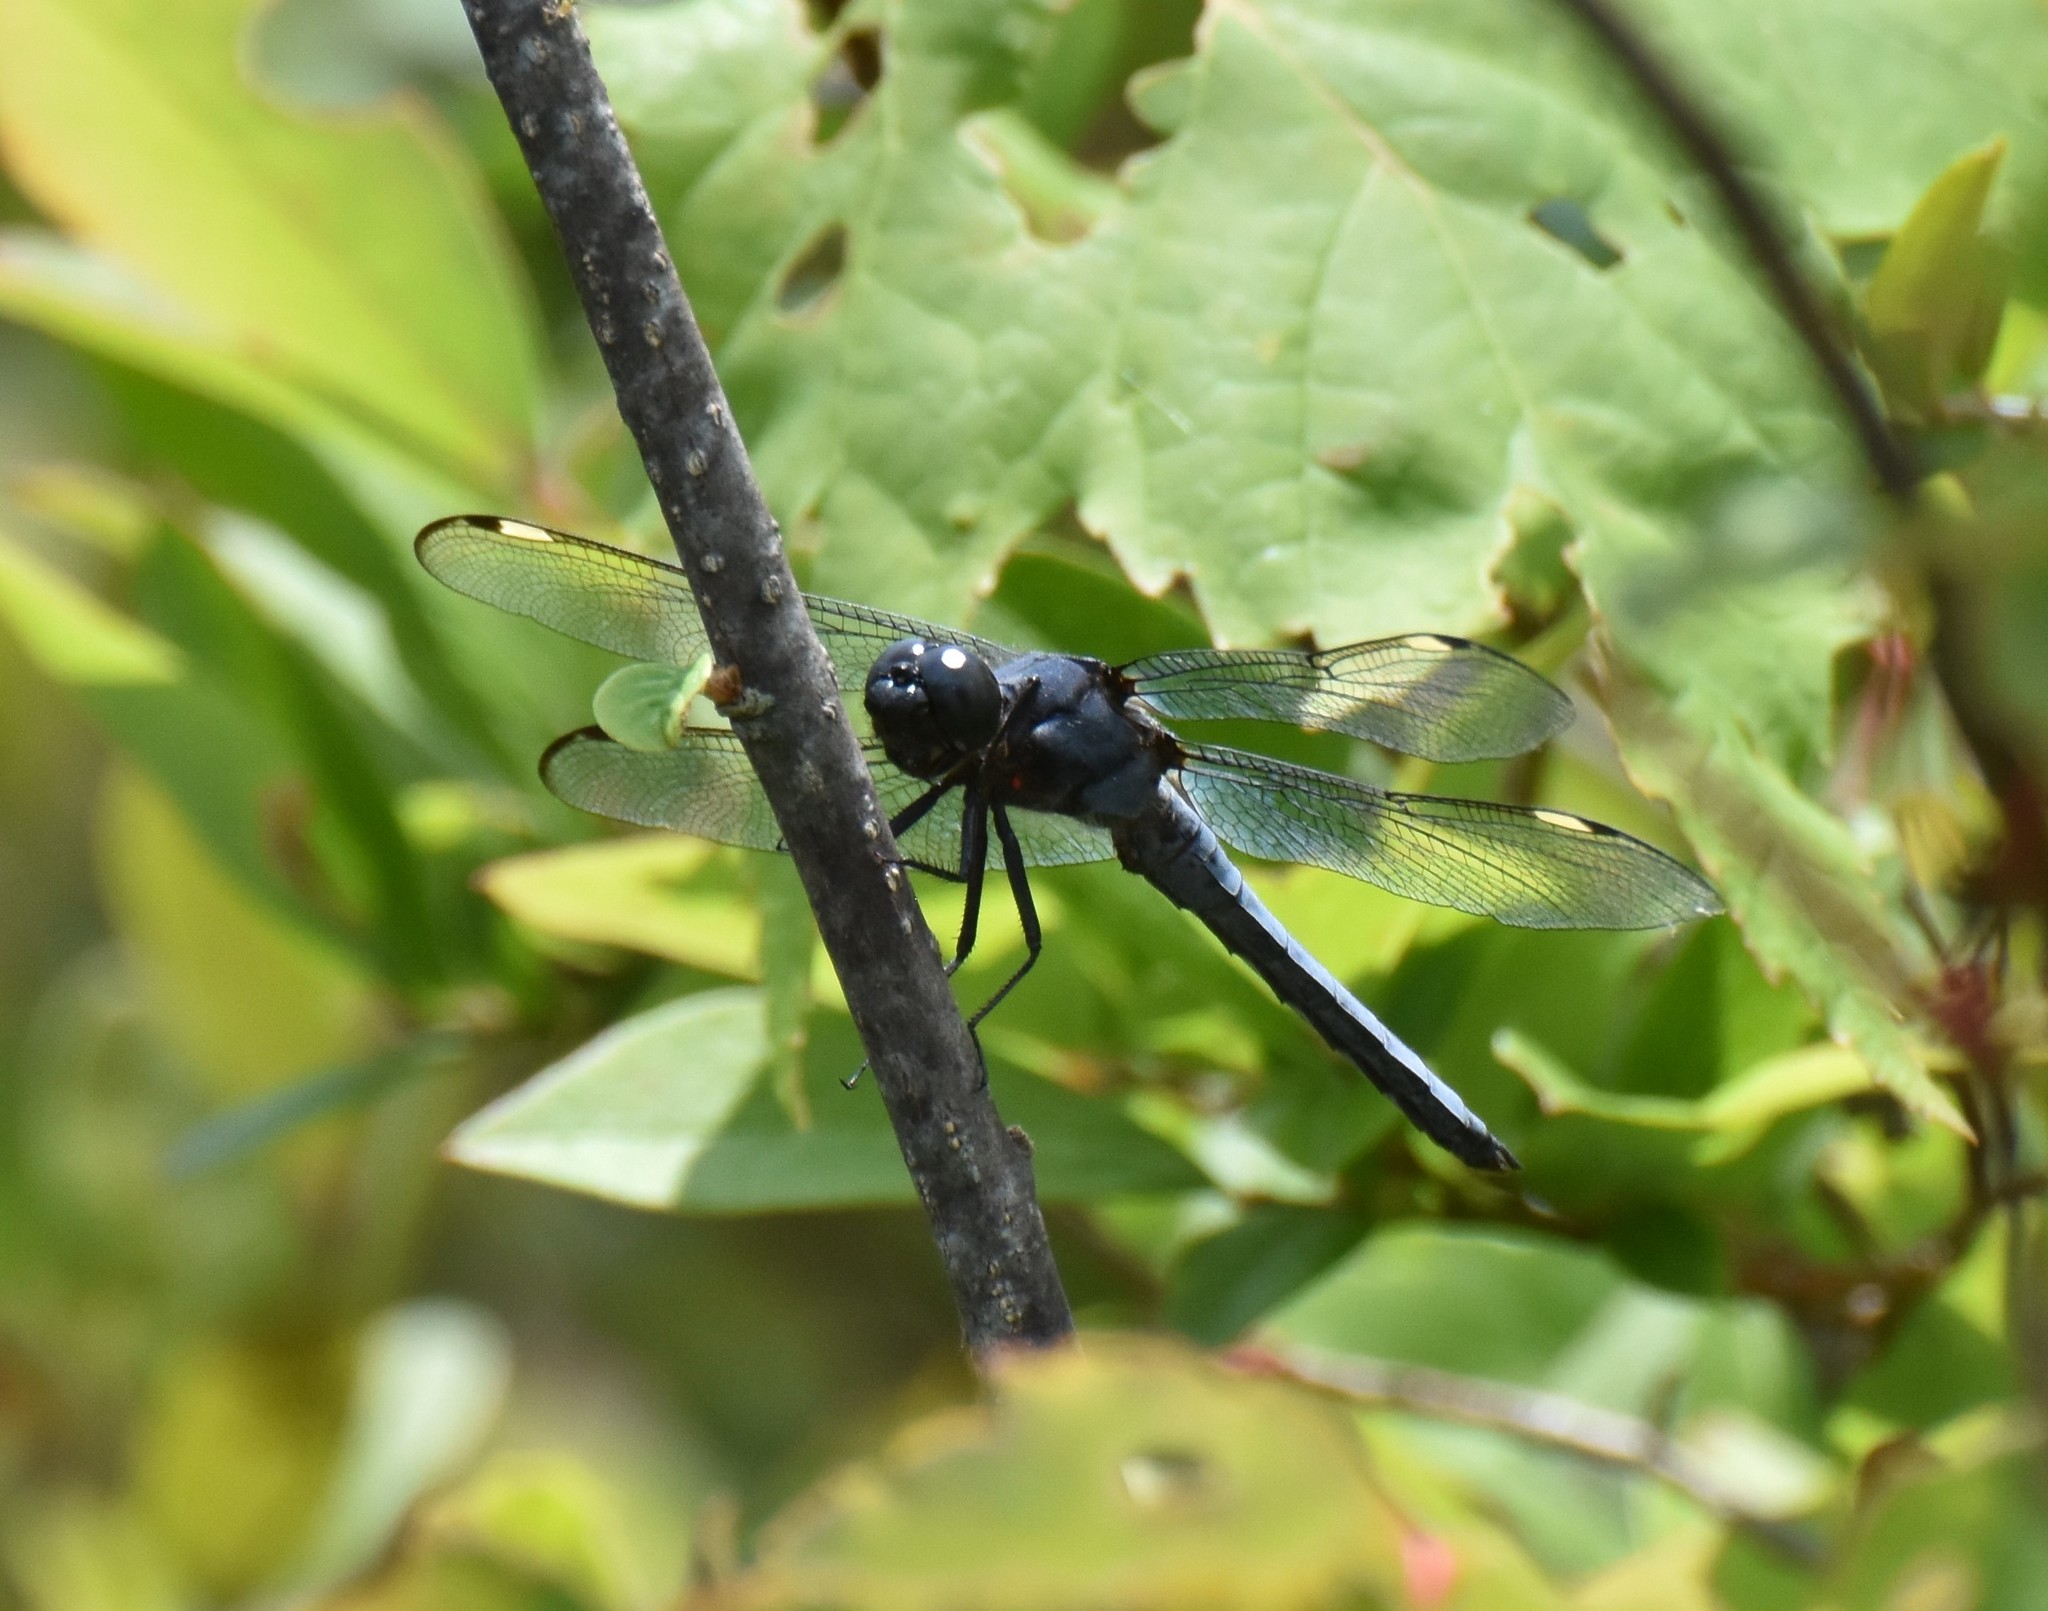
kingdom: Animalia
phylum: Arthropoda
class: Insecta
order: Odonata
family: Libellulidae
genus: Libellula
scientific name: Libellula cyanea
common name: Spangled skimmer
